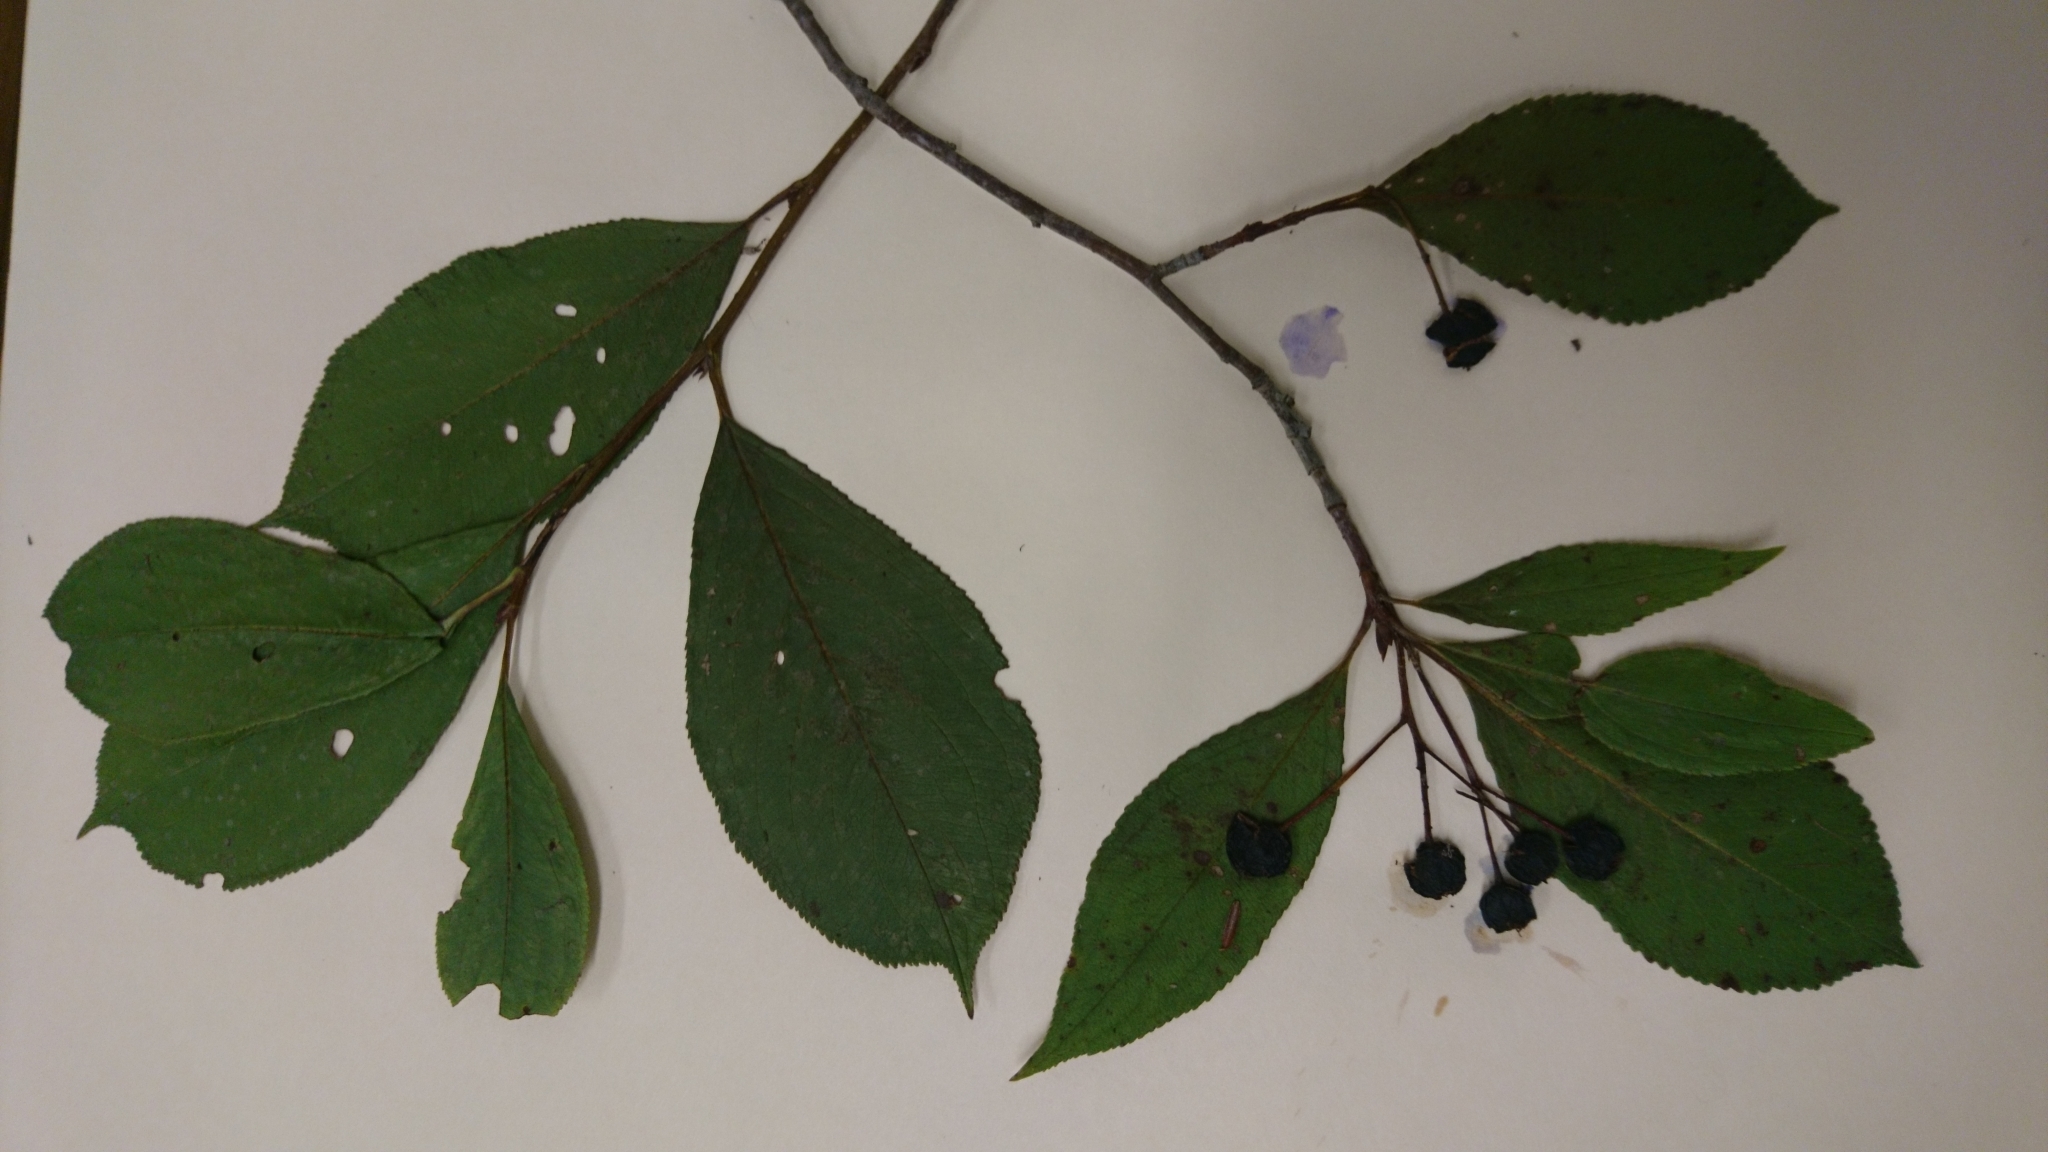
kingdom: Plantae
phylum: Tracheophyta
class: Magnoliopsida
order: Rosales
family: Rosaceae
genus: Aronia
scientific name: Aronia melanocarpa
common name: Black chokeberry
